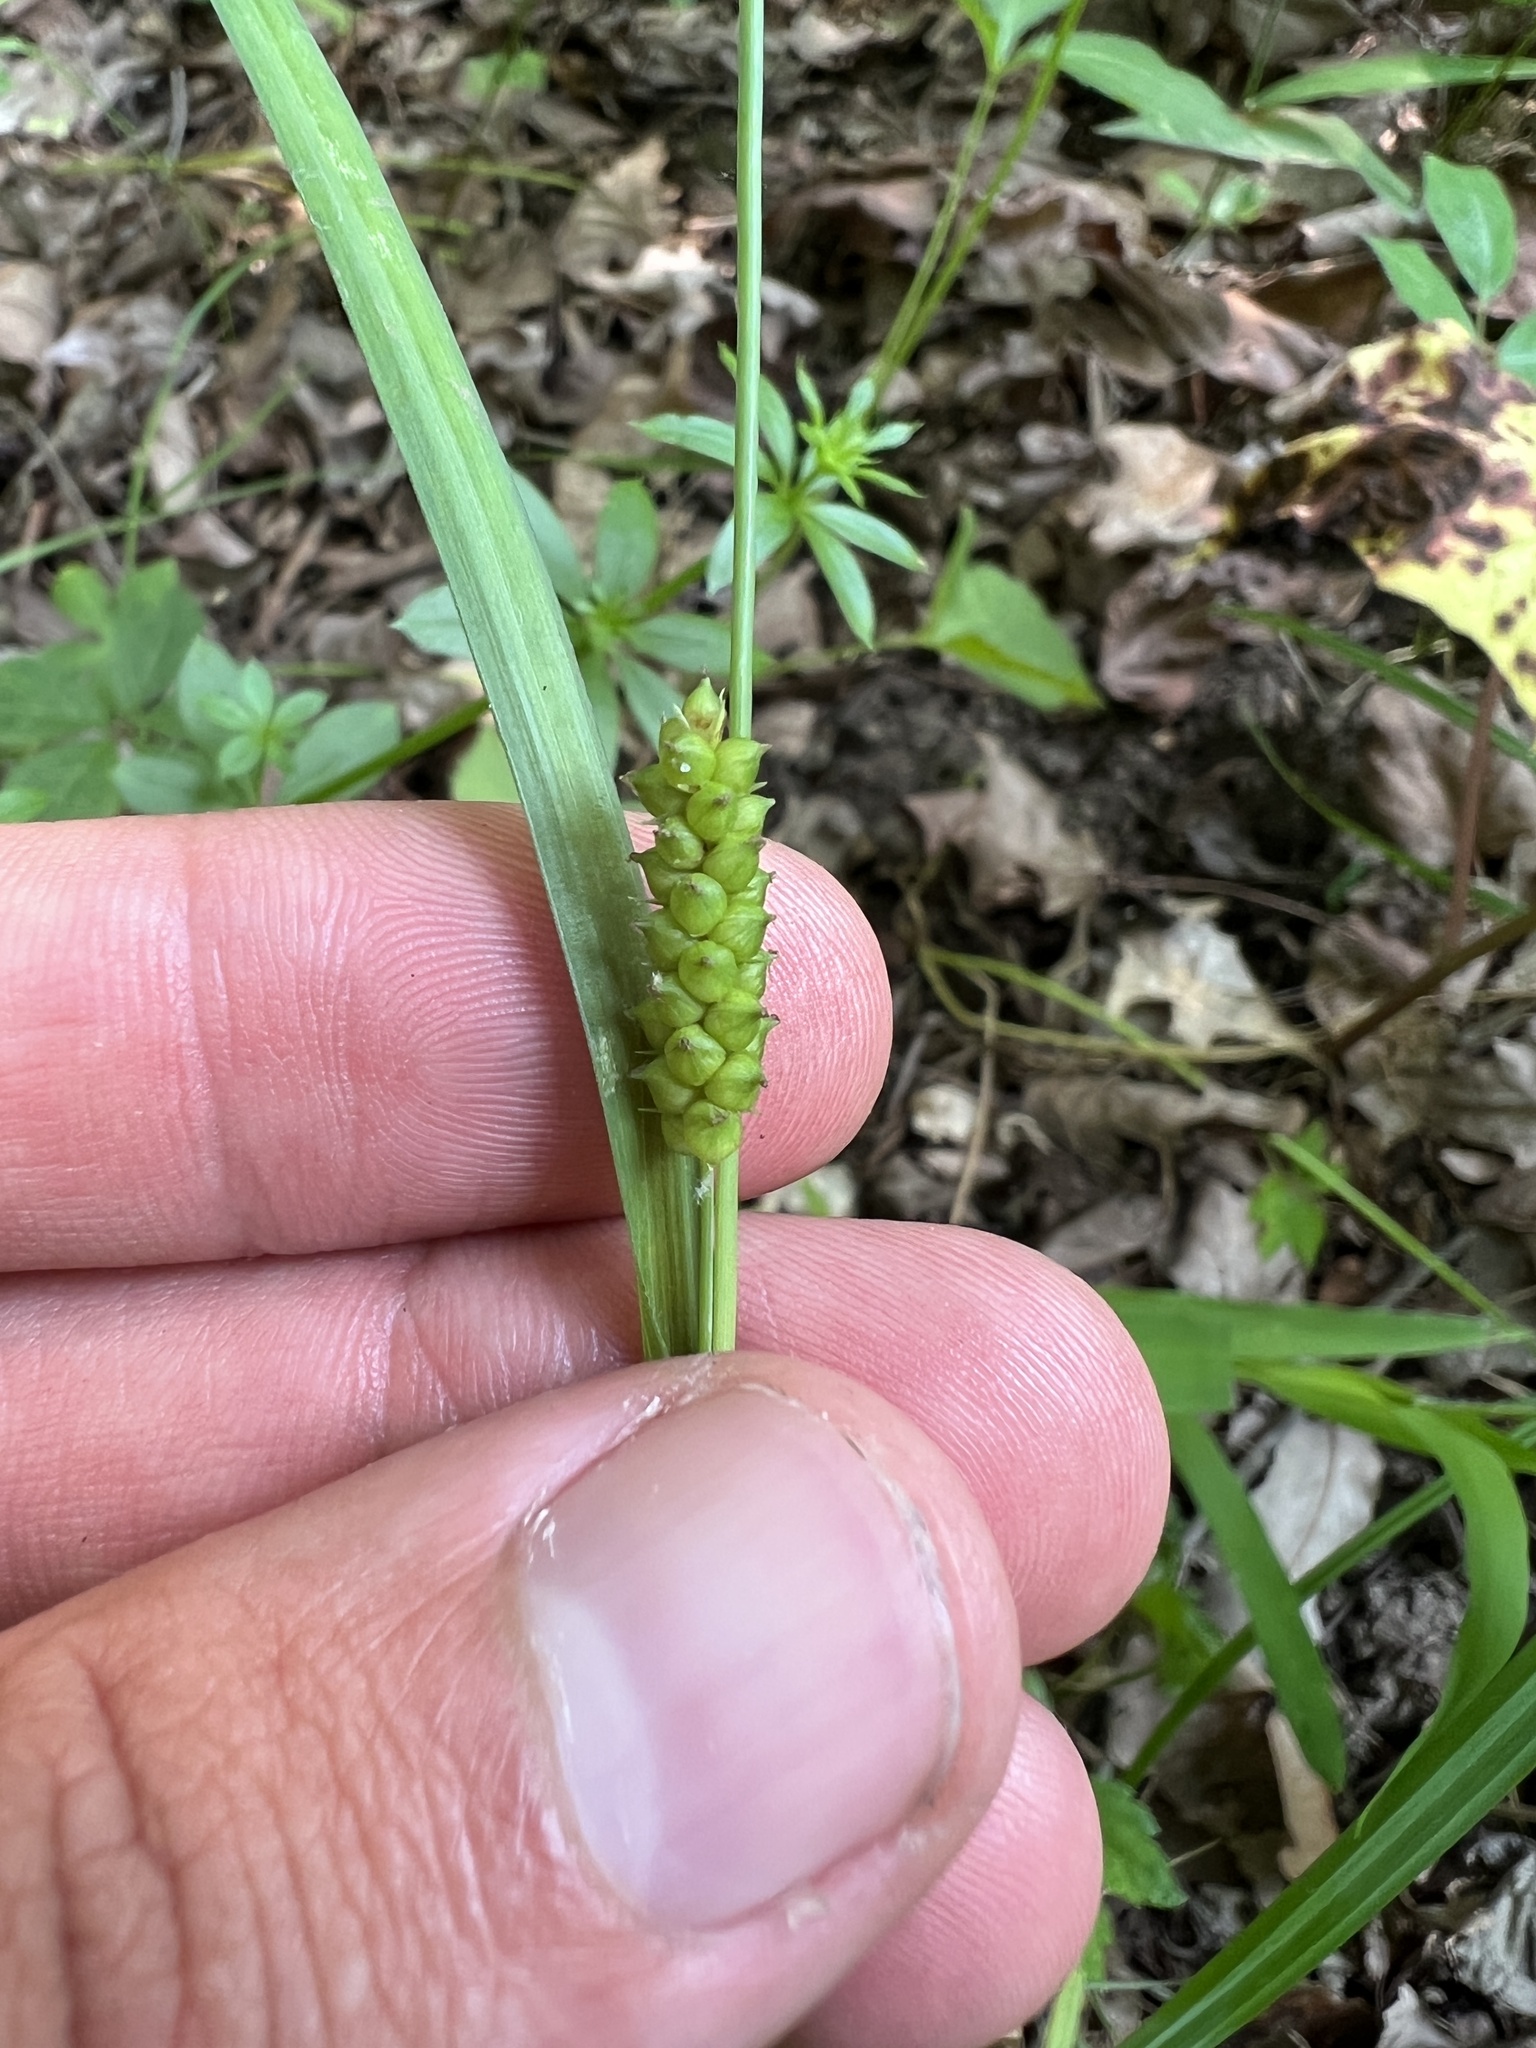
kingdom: Plantae
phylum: Tracheophyta
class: Liliopsida
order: Poales
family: Cyperaceae
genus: Carex
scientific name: Carex granularis
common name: Granular sedge
